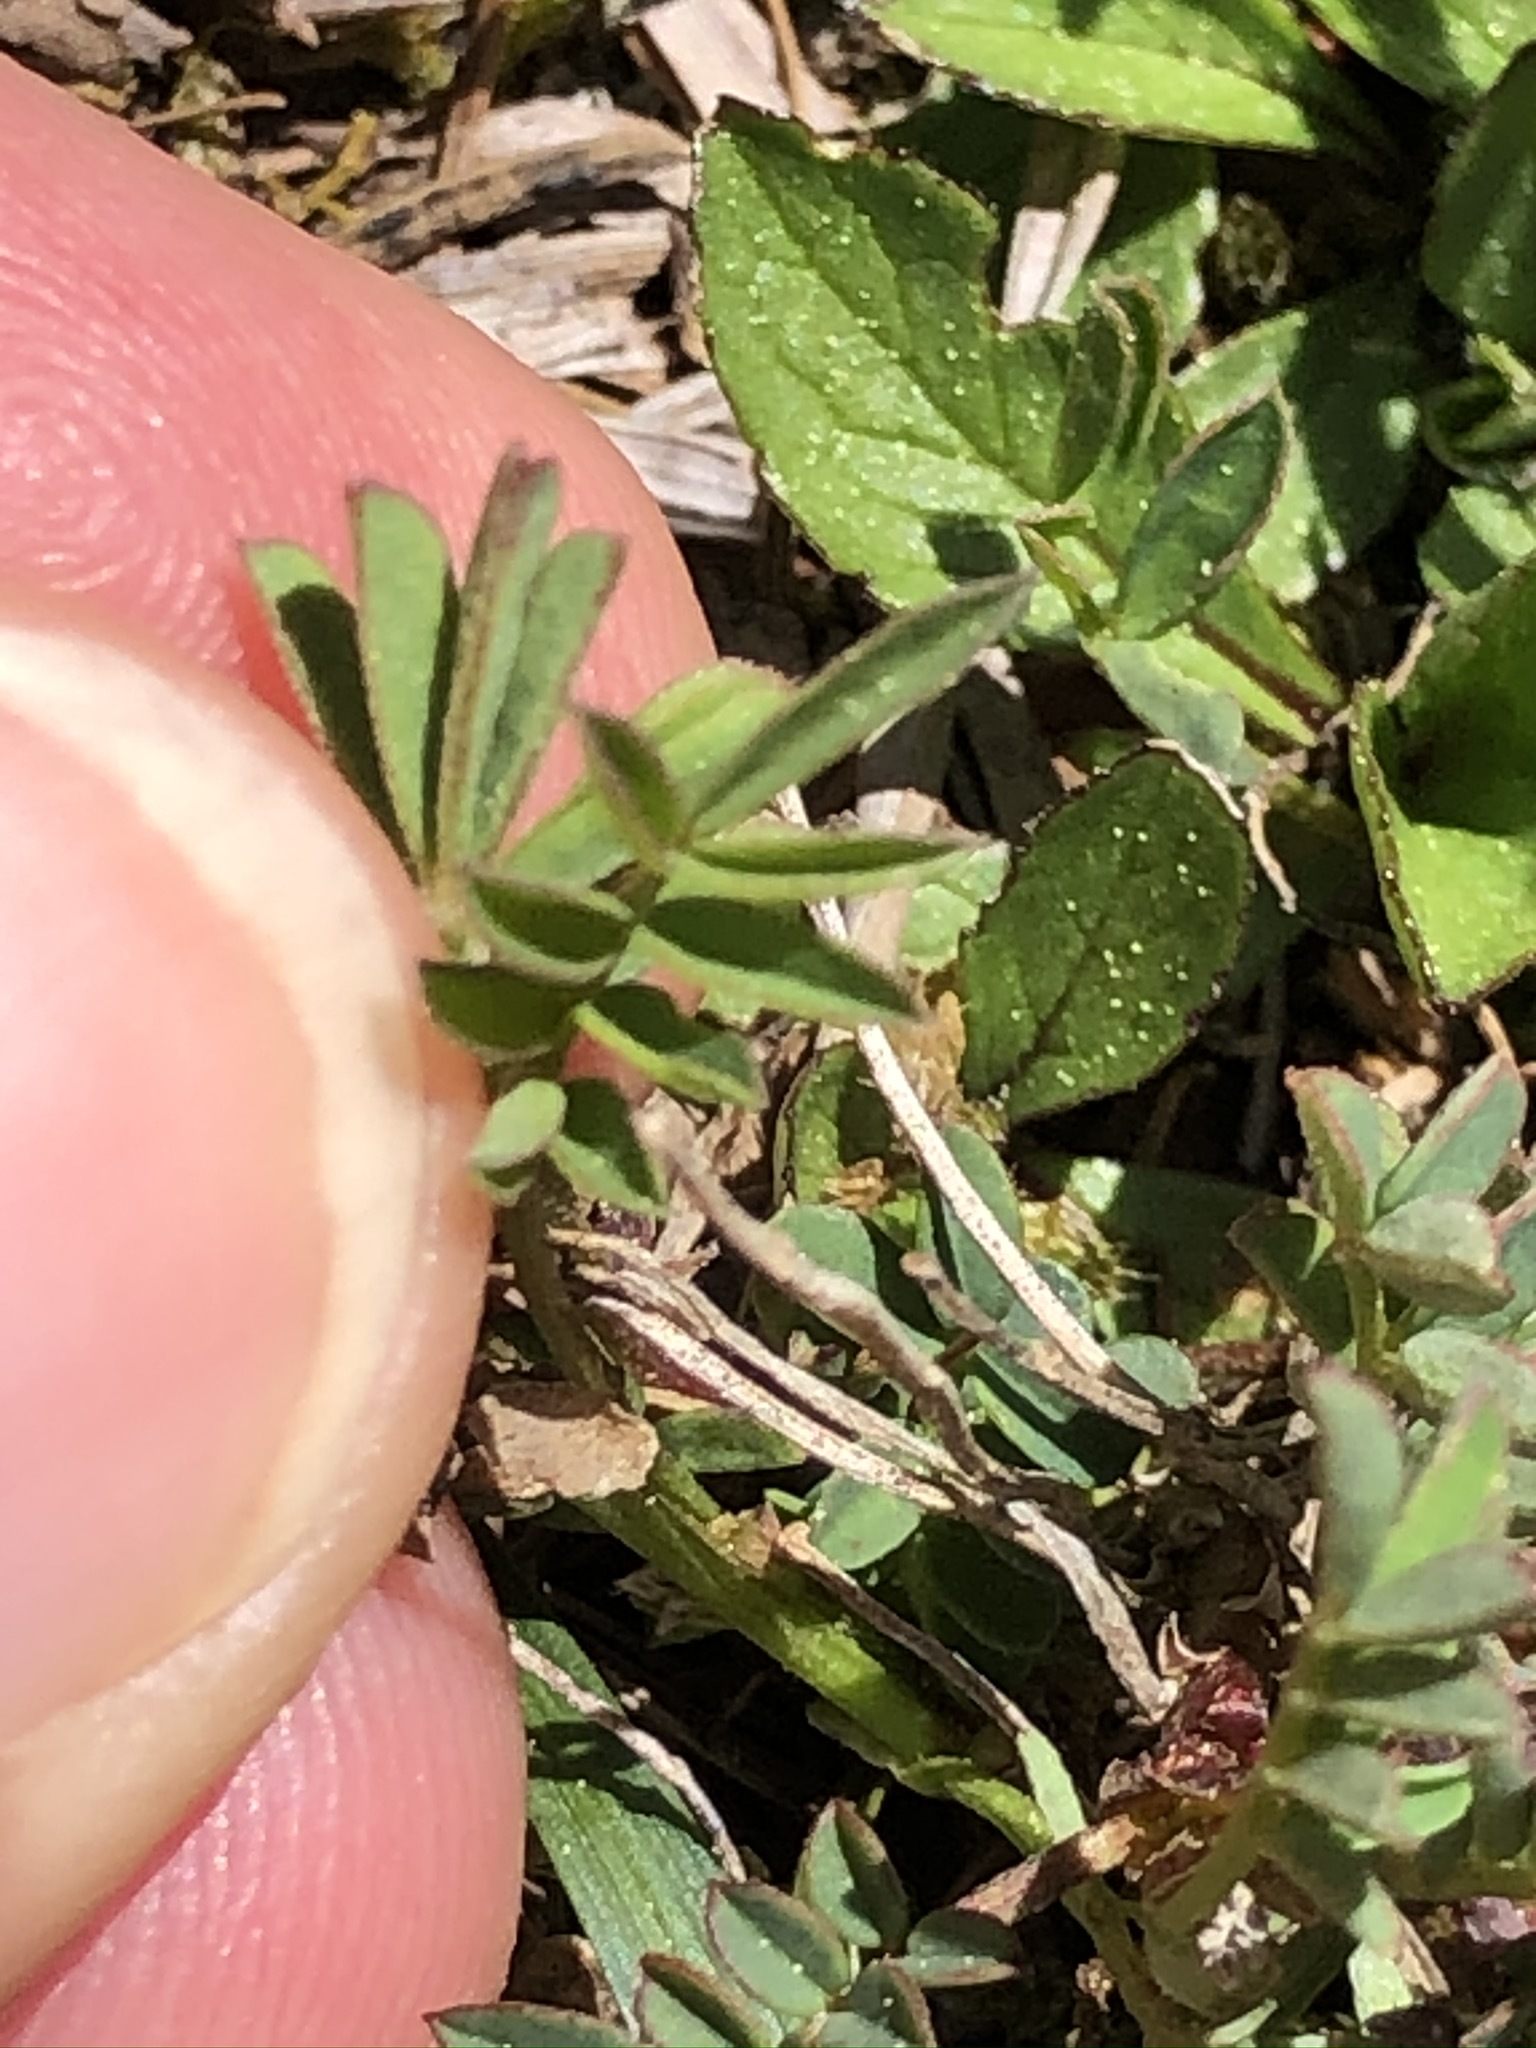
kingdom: Plantae
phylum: Tracheophyta
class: Magnoliopsida
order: Fabales
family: Fabaceae
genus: Hippocrepis
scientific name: Hippocrepis comosa
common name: Horseshoe vetch
